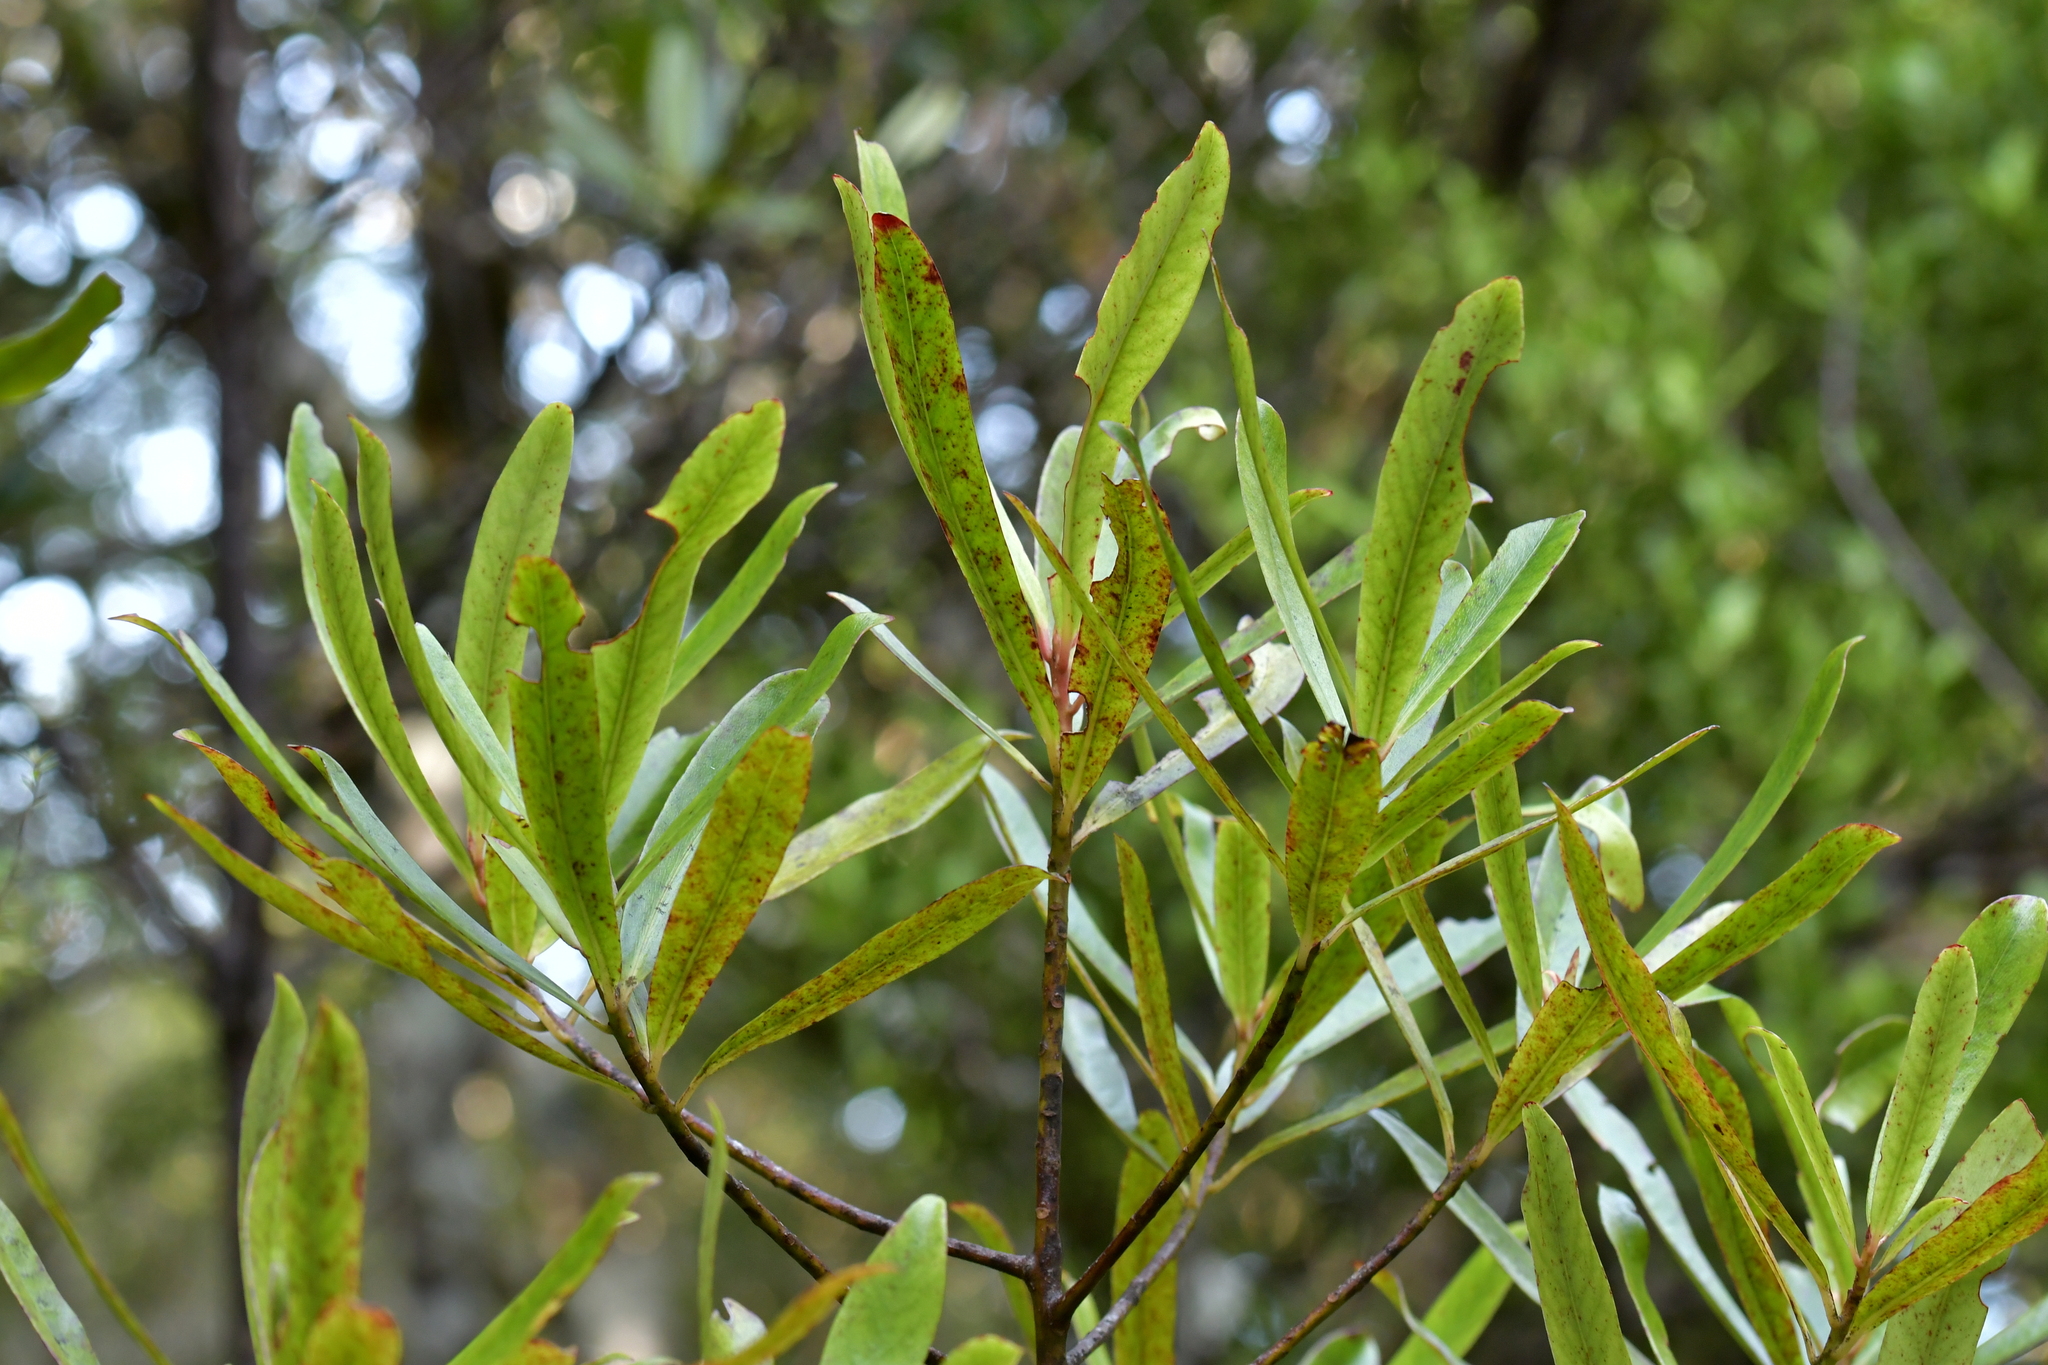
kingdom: Plantae
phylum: Tracheophyta
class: Magnoliopsida
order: Ericales
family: Primulaceae
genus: Myrsine
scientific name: Myrsine salicina
